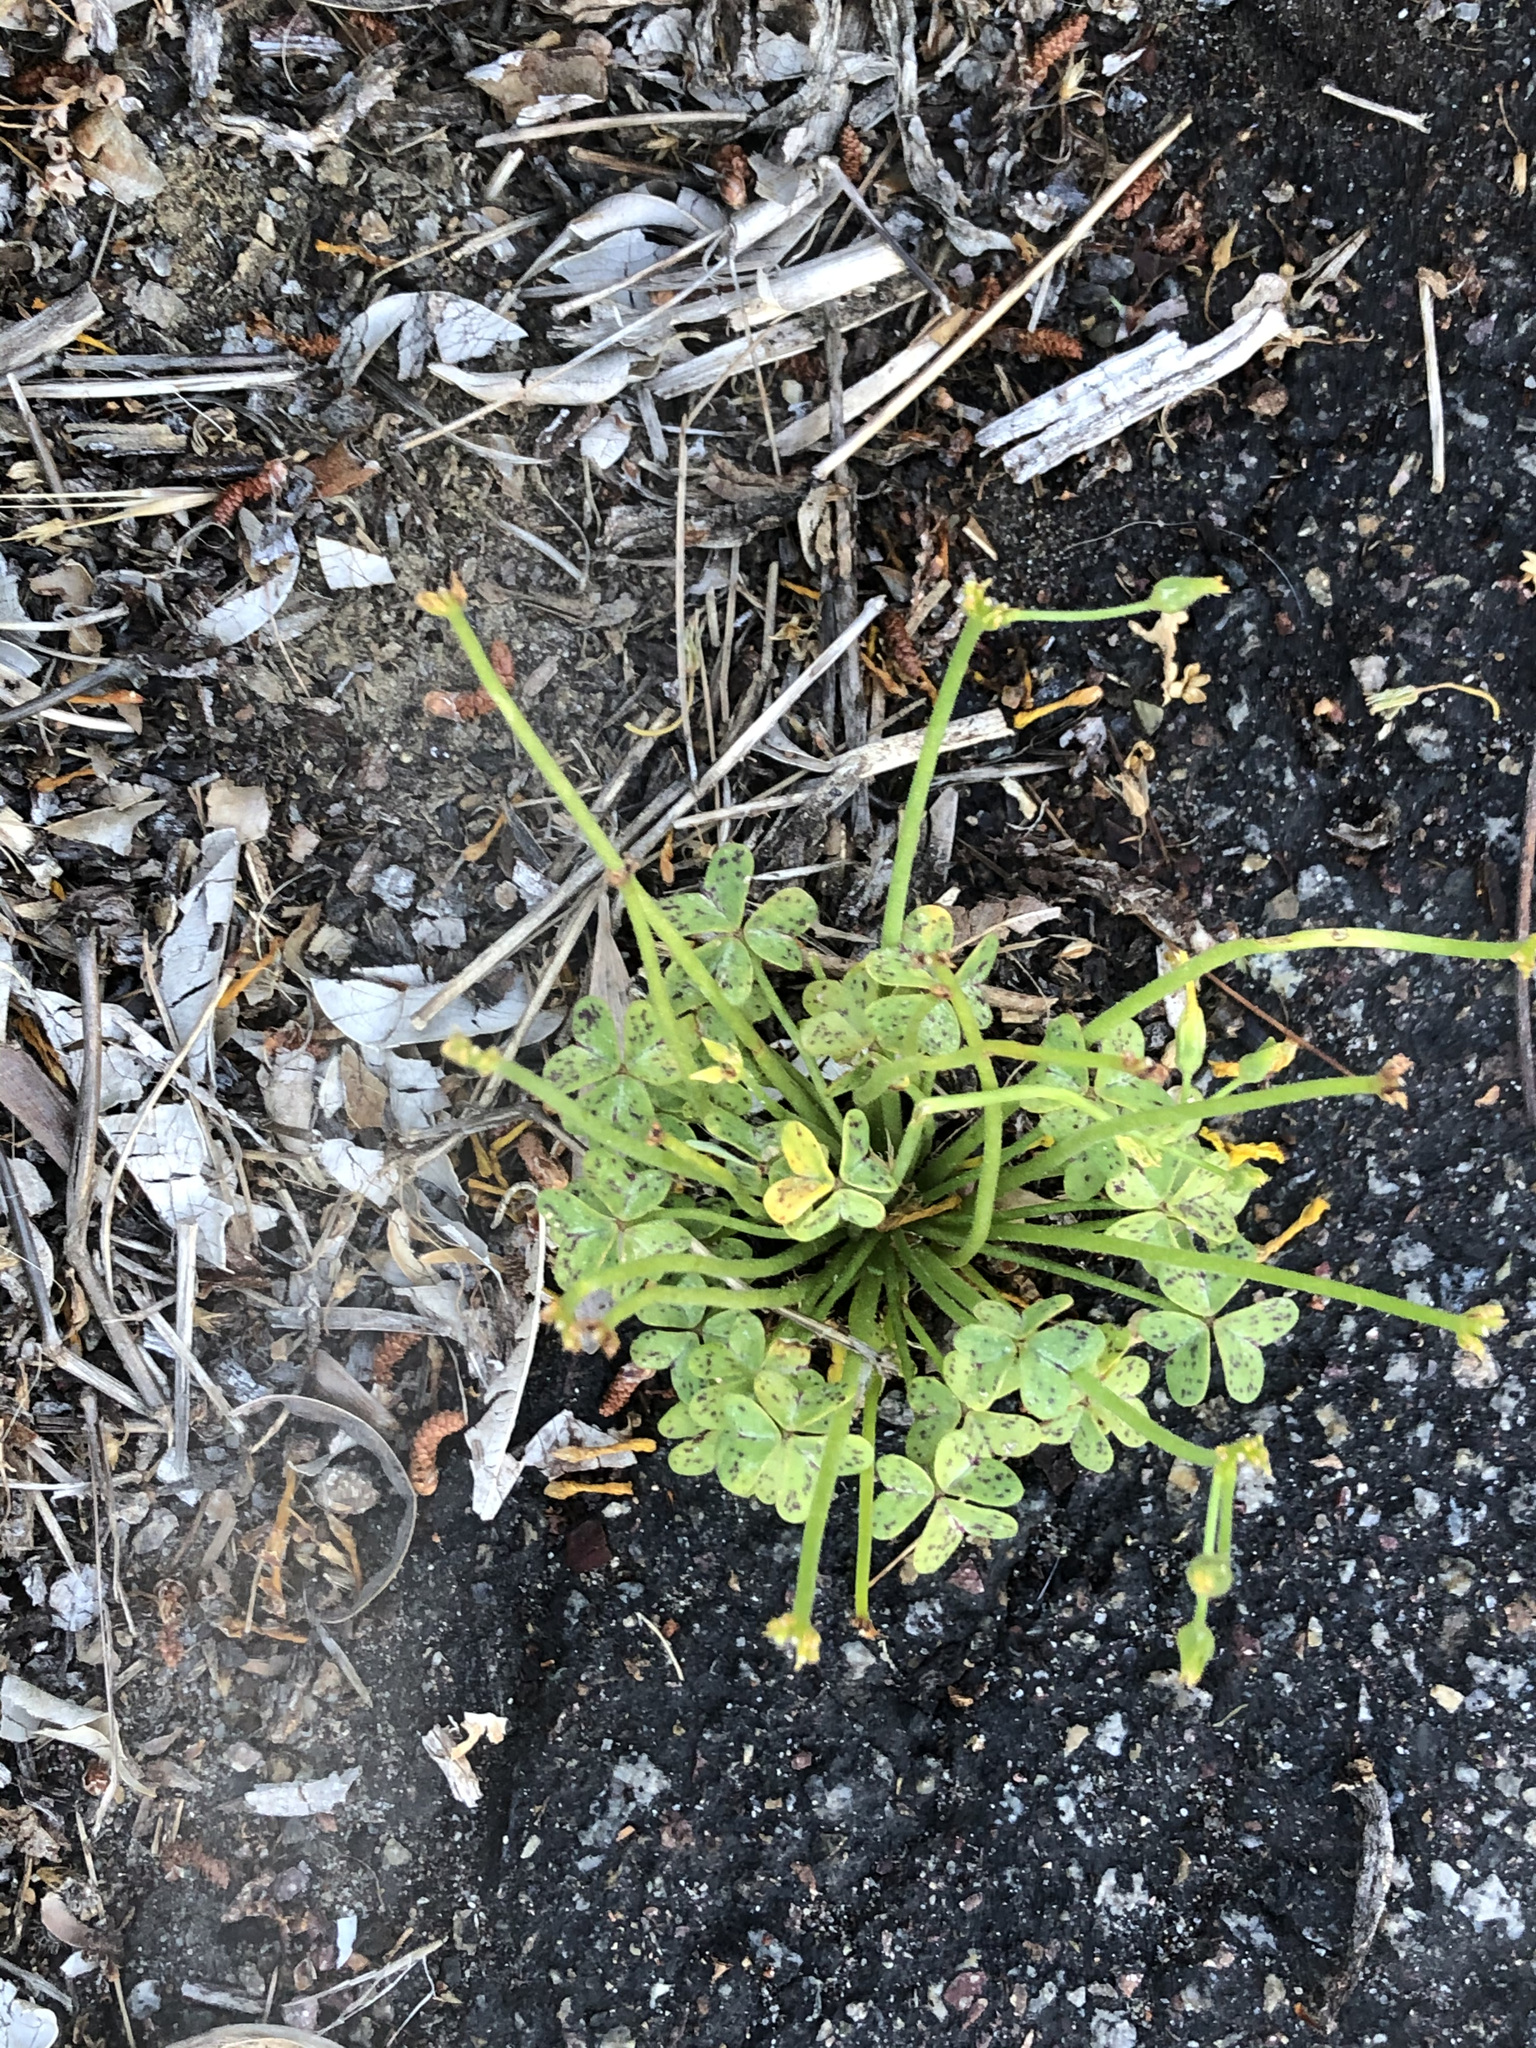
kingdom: Plantae
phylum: Tracheophyta
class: Magnoliopsida
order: Oxalidales
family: Oxalidaceae
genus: Oxalis
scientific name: Oxalis pes-caprae
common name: Bermuda-buttercup
